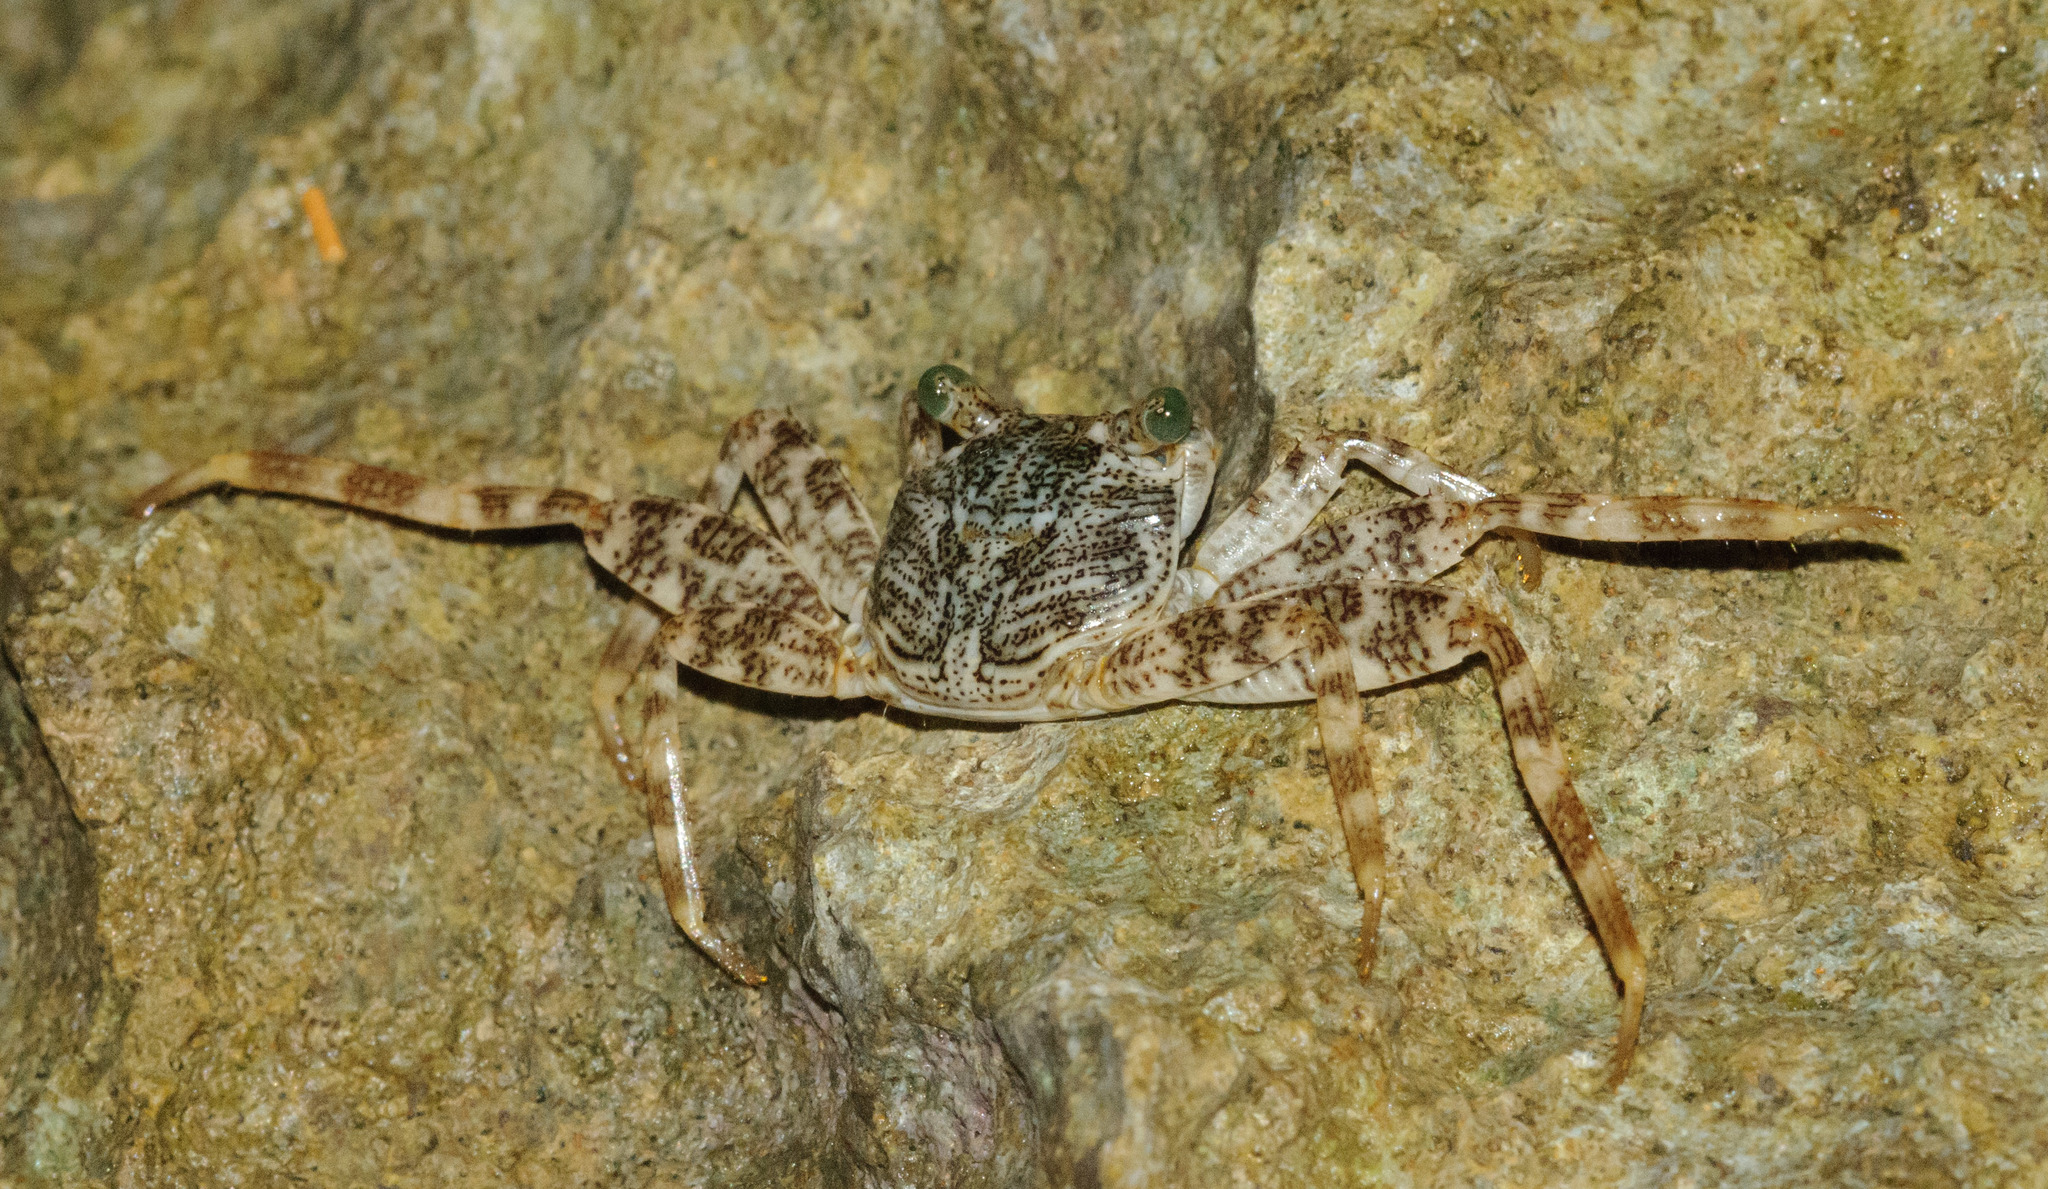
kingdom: Animalia
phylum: Arthropoda
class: Malacostraca
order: Decapoda
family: Grapsidae
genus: Grapsus
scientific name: Grapsus tenuicrustatus
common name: Natal lightfoot crab
